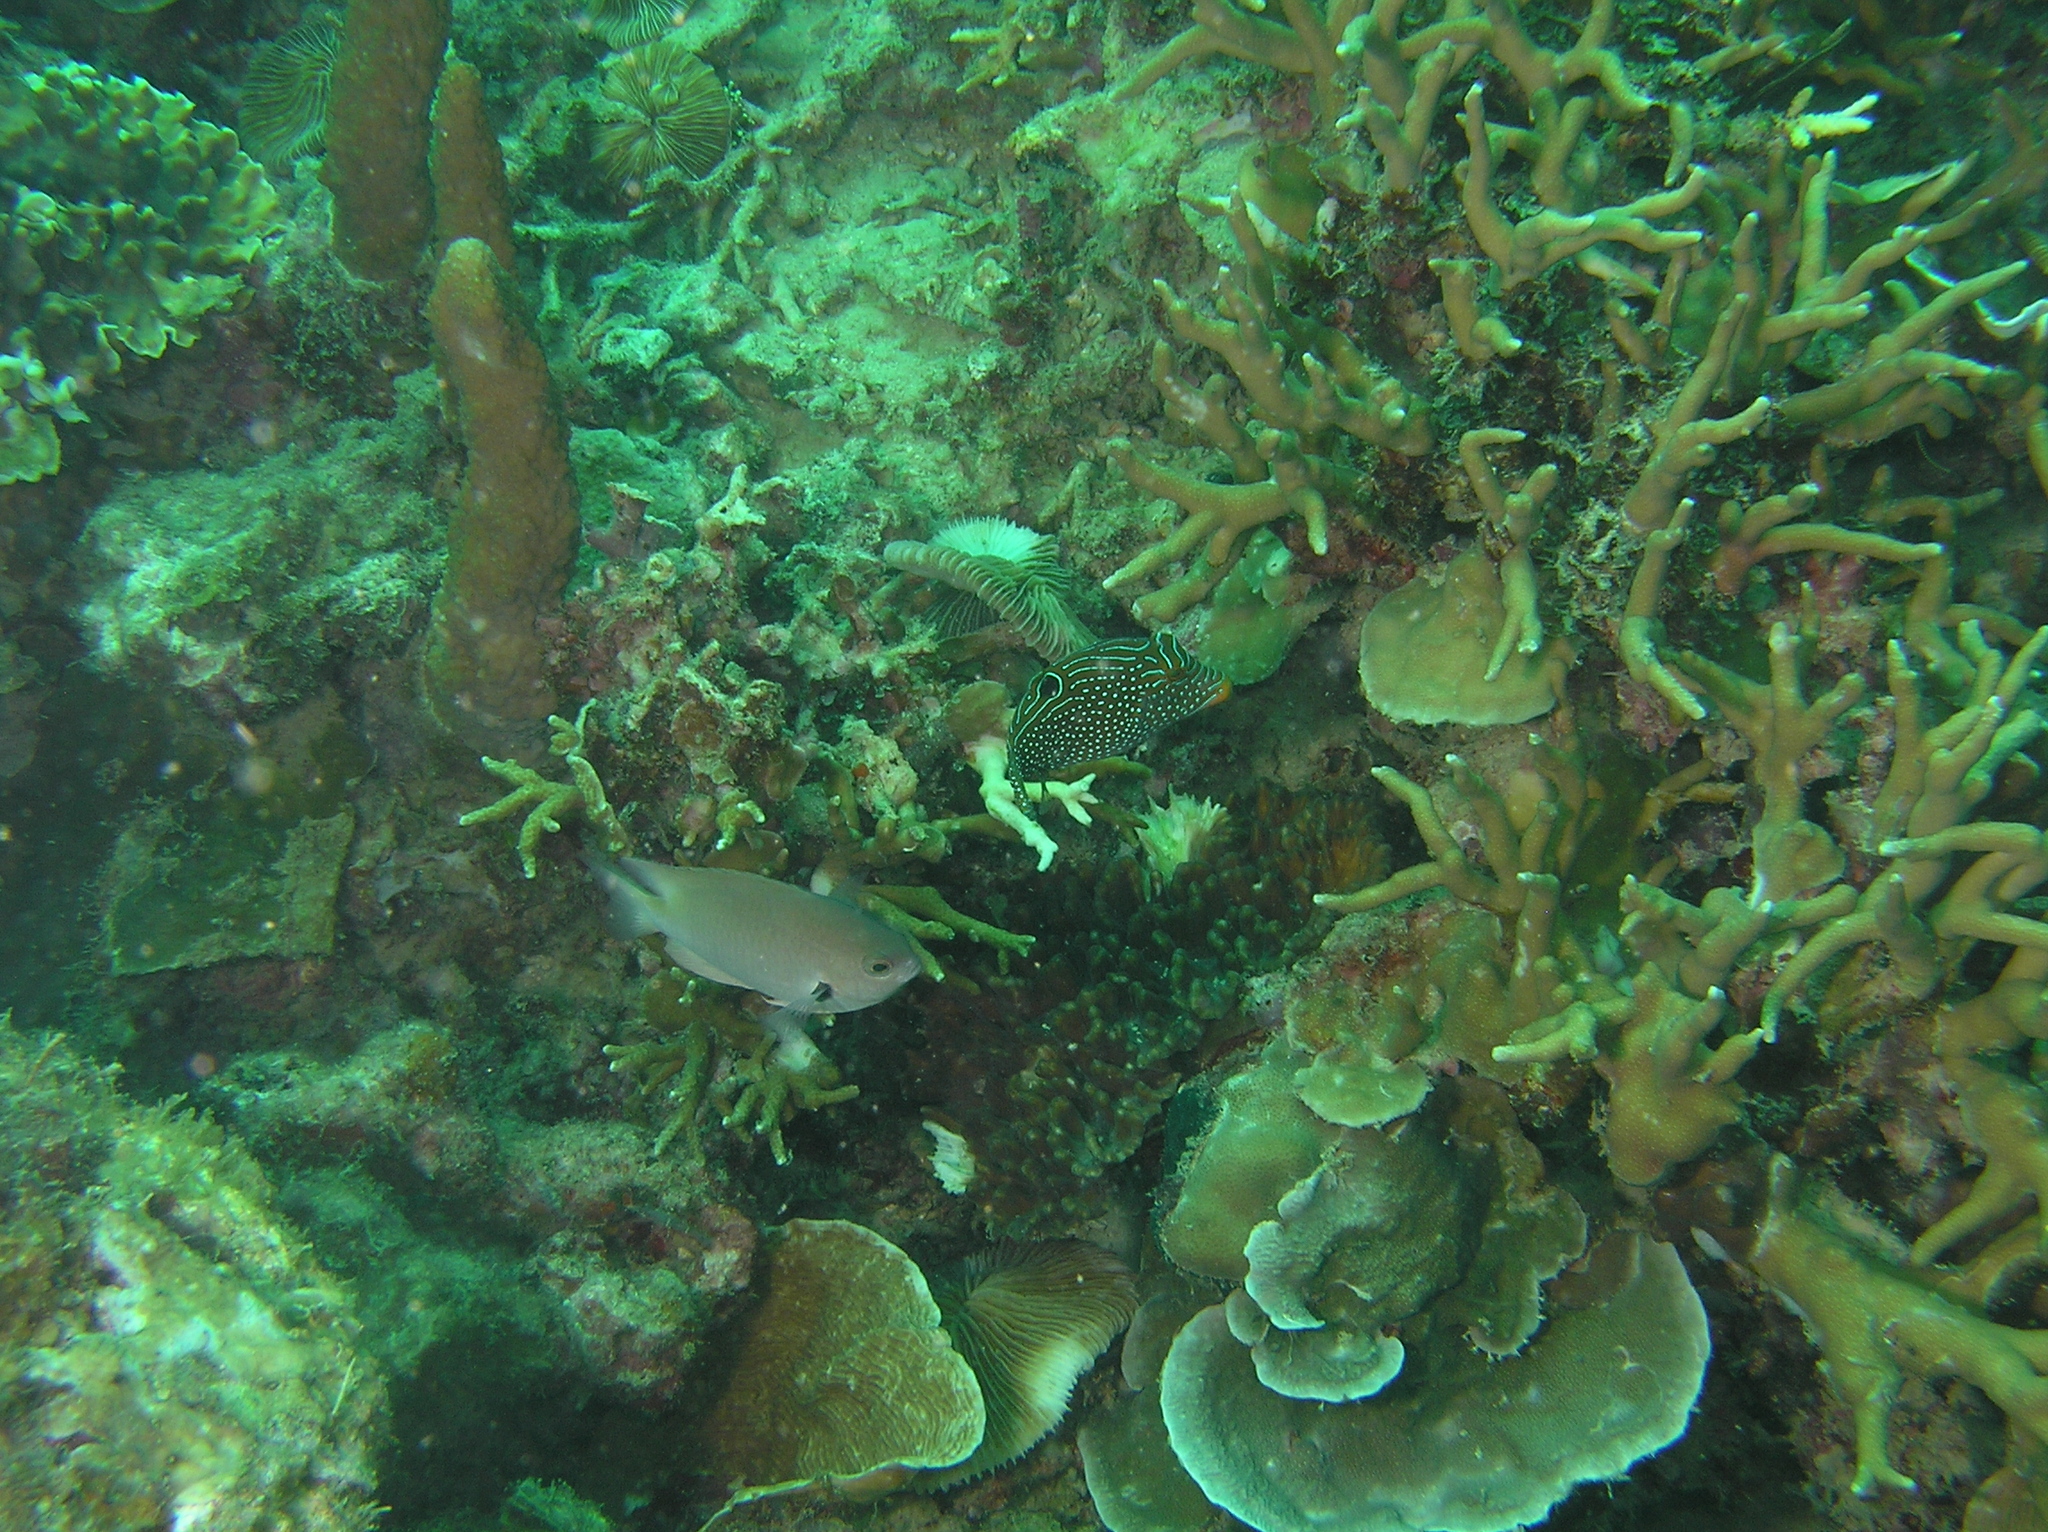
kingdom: Animalia
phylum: Chordata
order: Tetraodontiformes
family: Tetraodontidae
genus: Canthigaster
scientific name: Canthigaster papua
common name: False-eyed pufferfish
